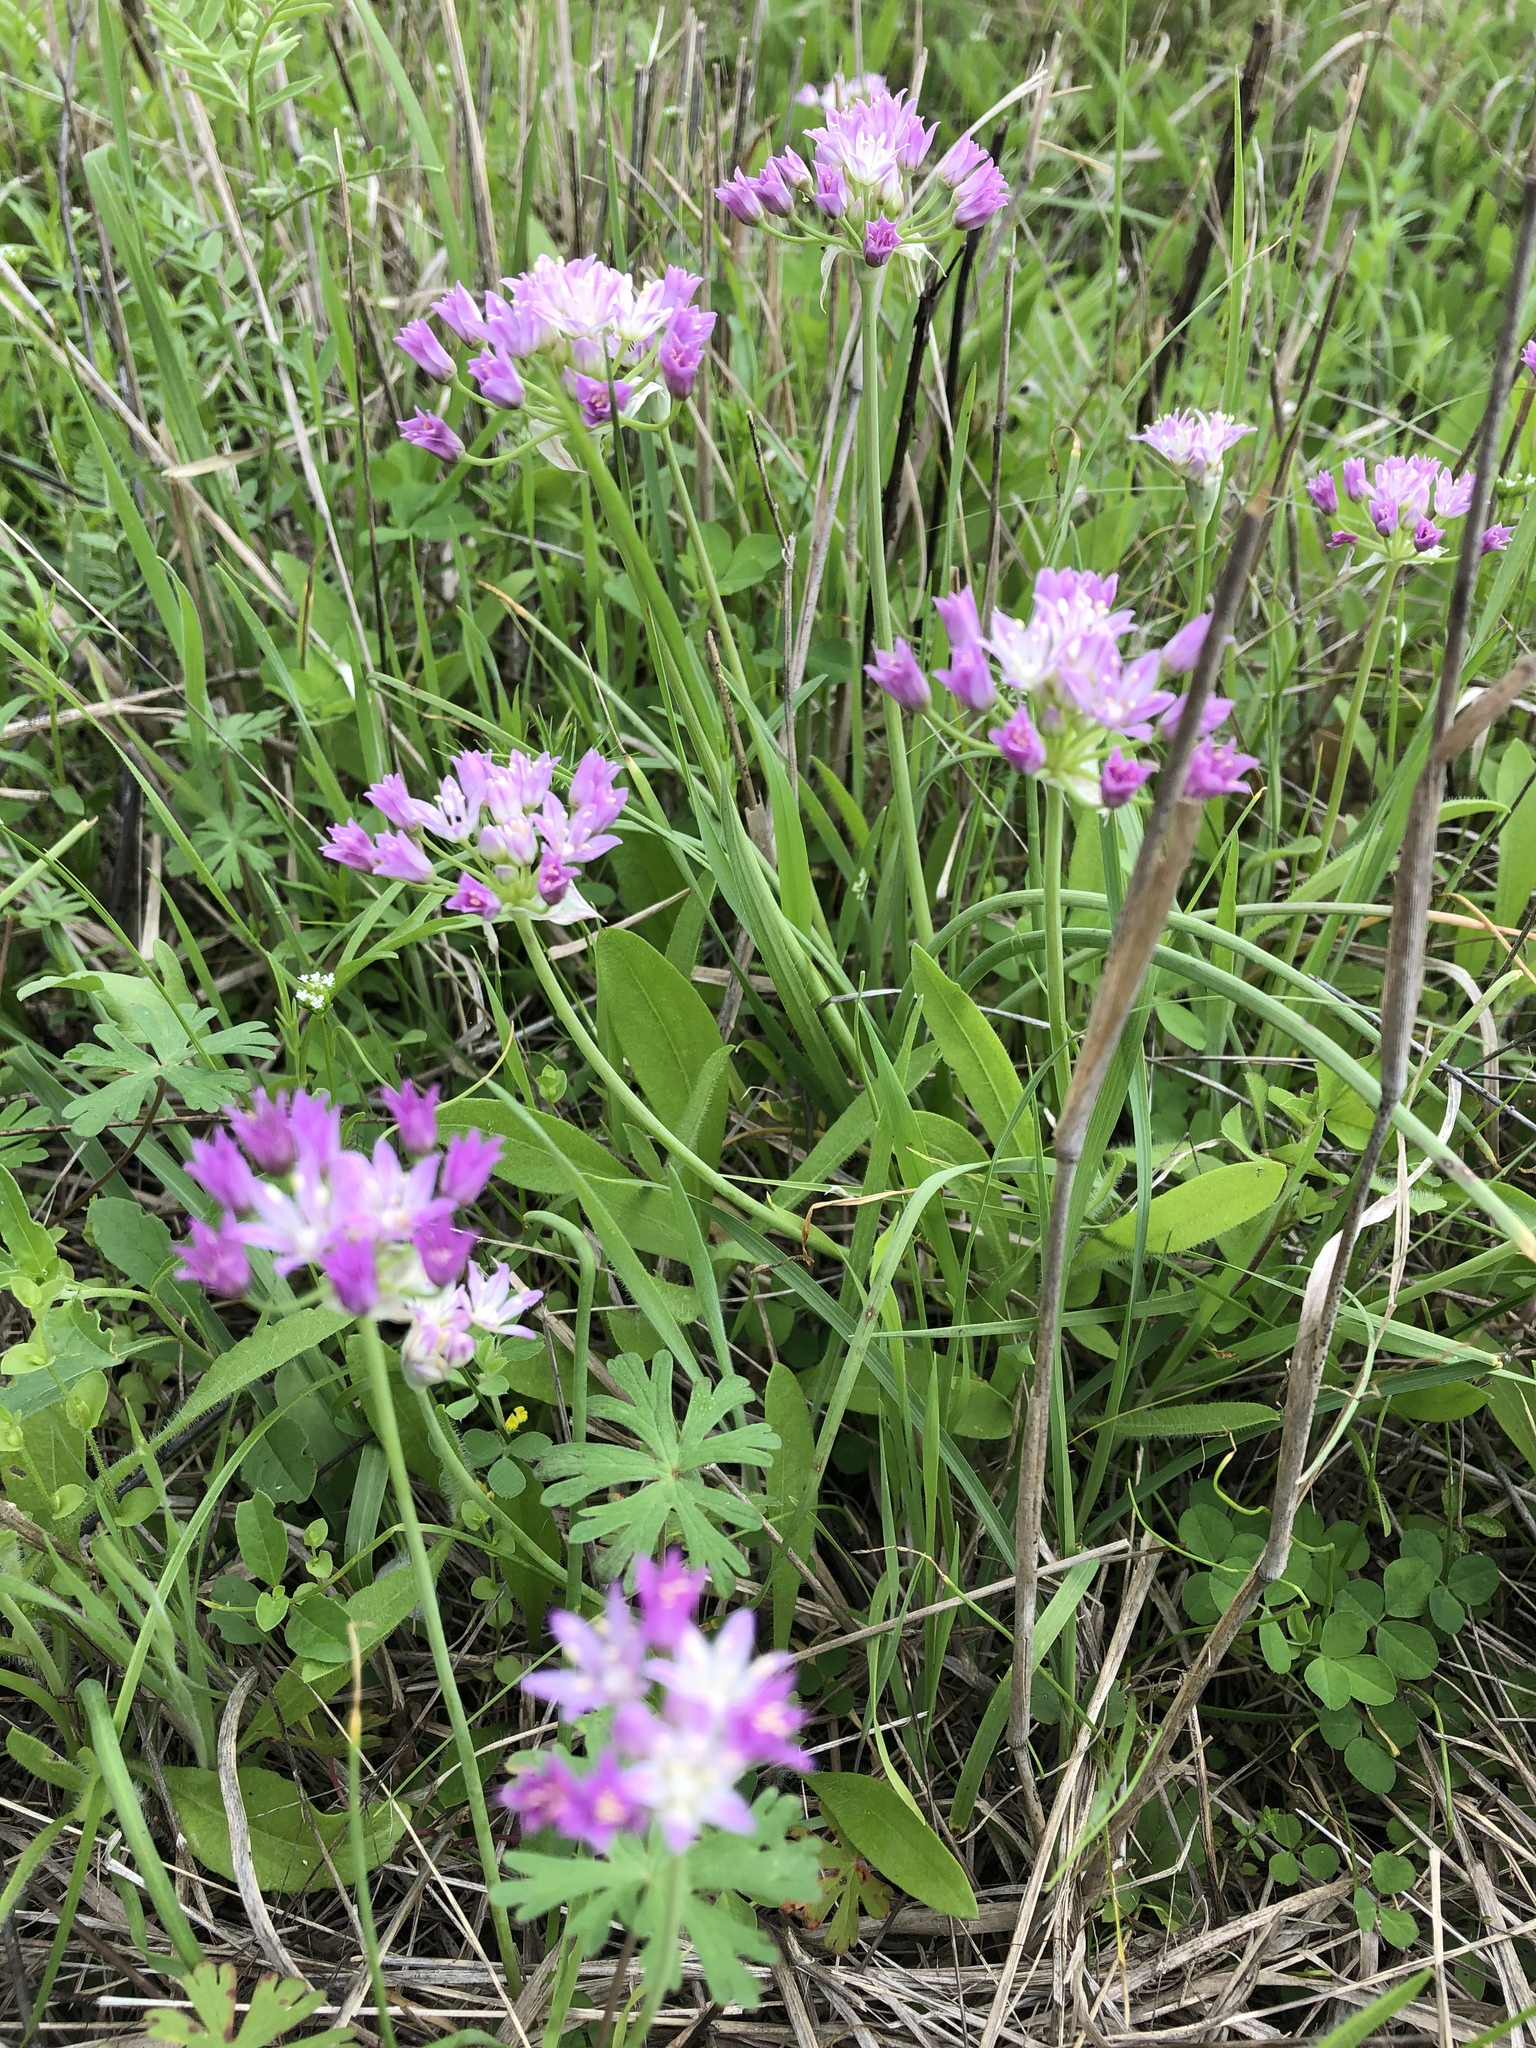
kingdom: Plantae
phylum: Tracheophyta
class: Liliopsida
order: Asparagales
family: Amaryllidaceae
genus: Allium
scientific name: Allium drummondii
